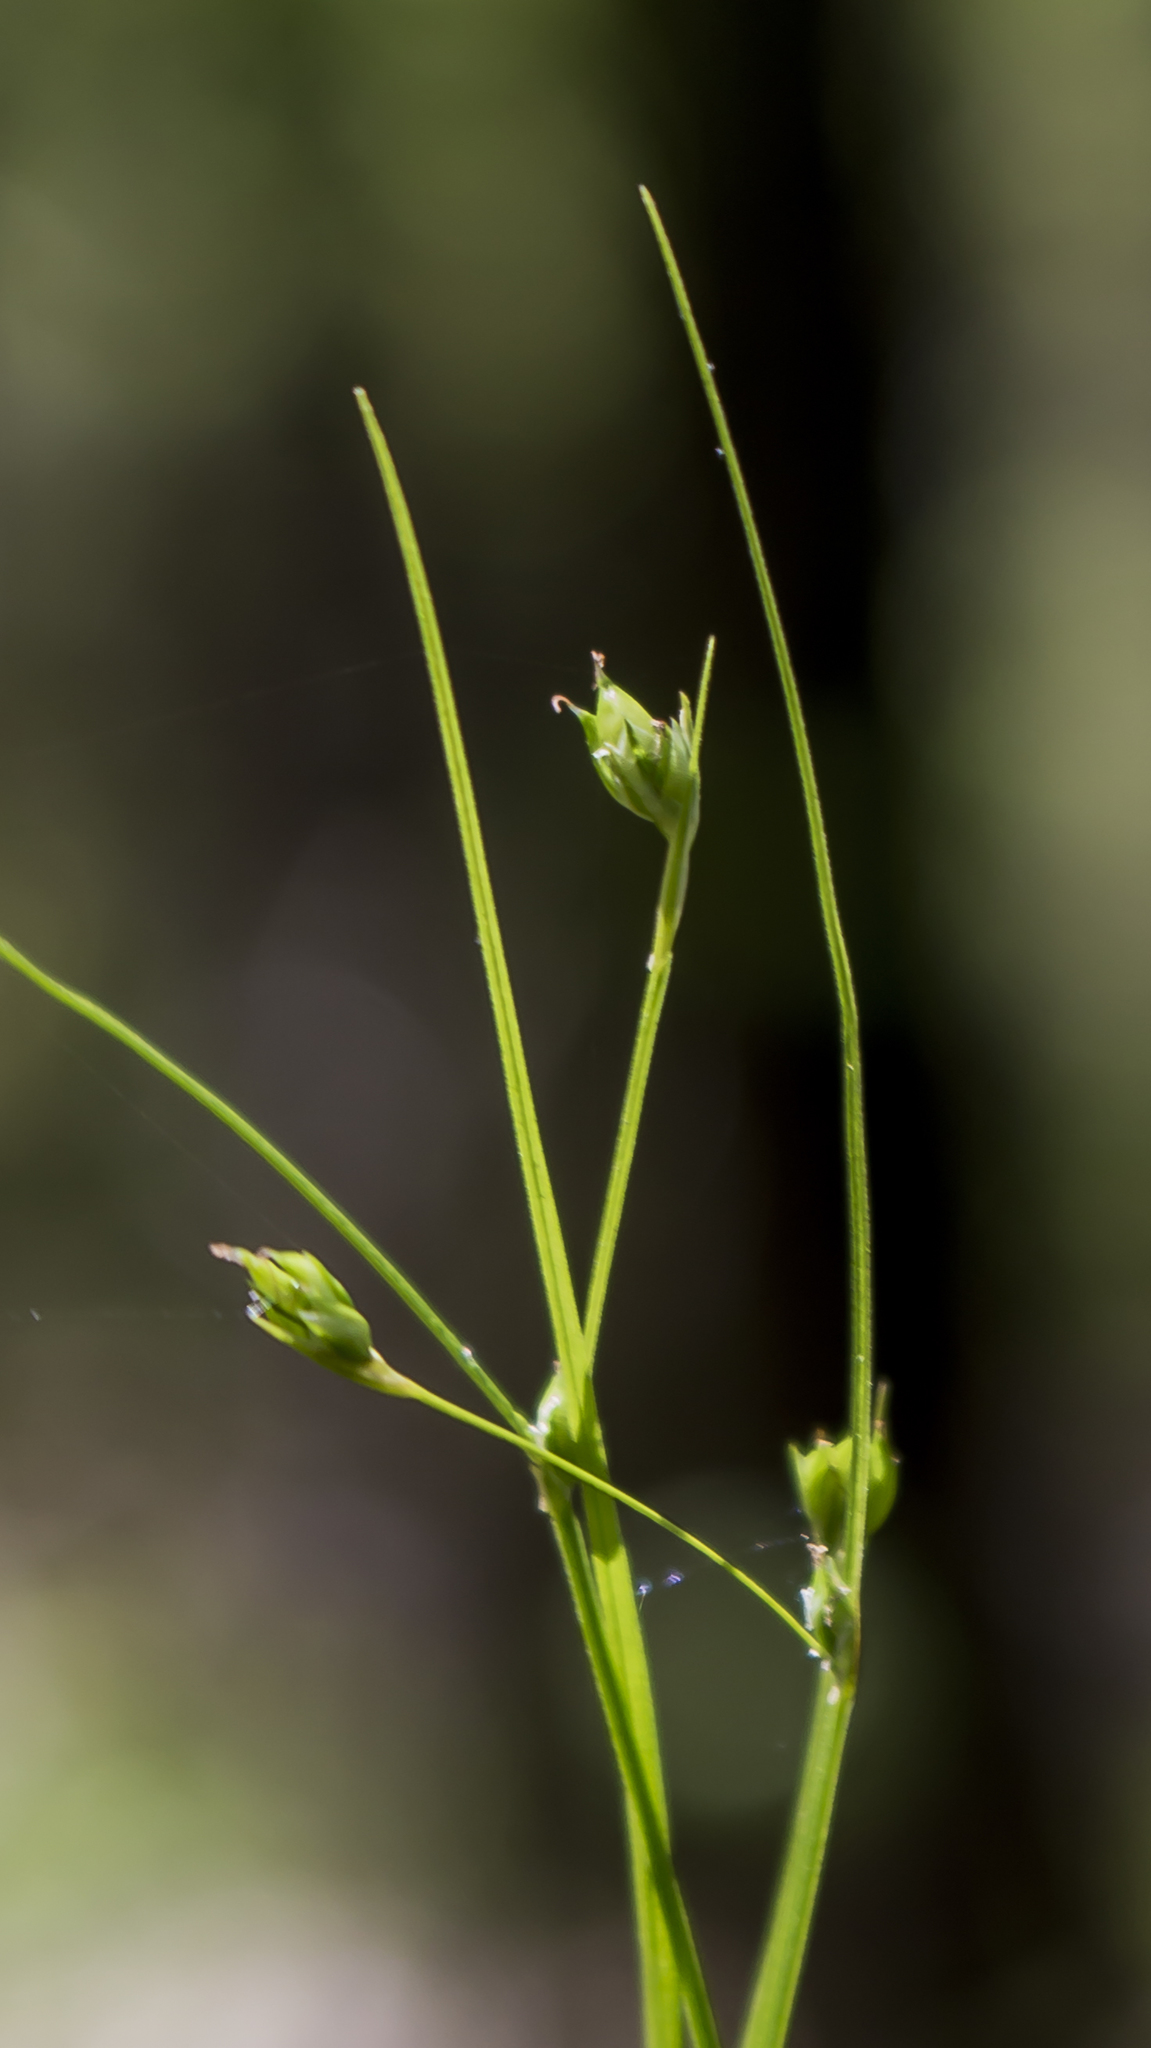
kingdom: Plantae
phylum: Tracheophyta
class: Liliopsida
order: Poales
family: Cyperaceae
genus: Carex
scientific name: Carex trisperma
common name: Three-seeded sedge
